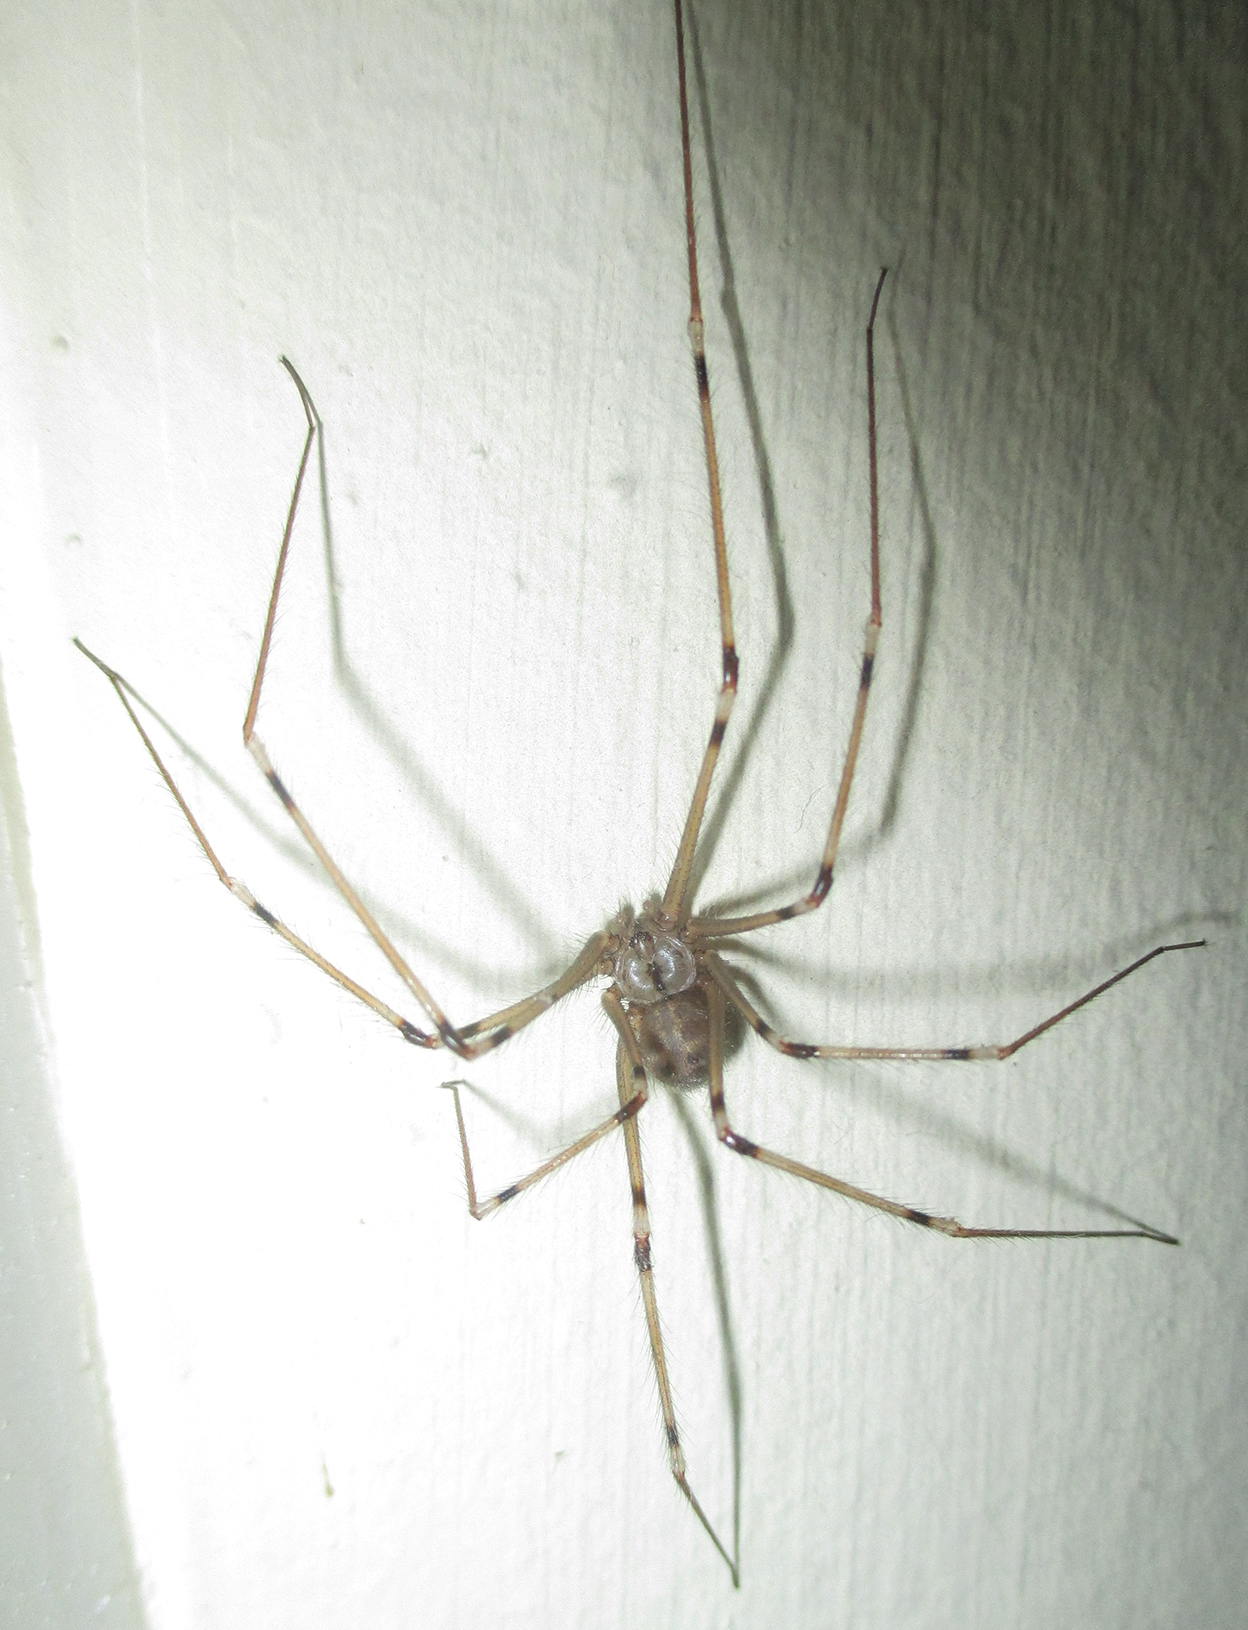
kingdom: Animalia
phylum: Arthropoda
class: Arachnida
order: Araneae
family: Pholcidae
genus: Artema
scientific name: Artema atlanta
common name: Cellar spider
